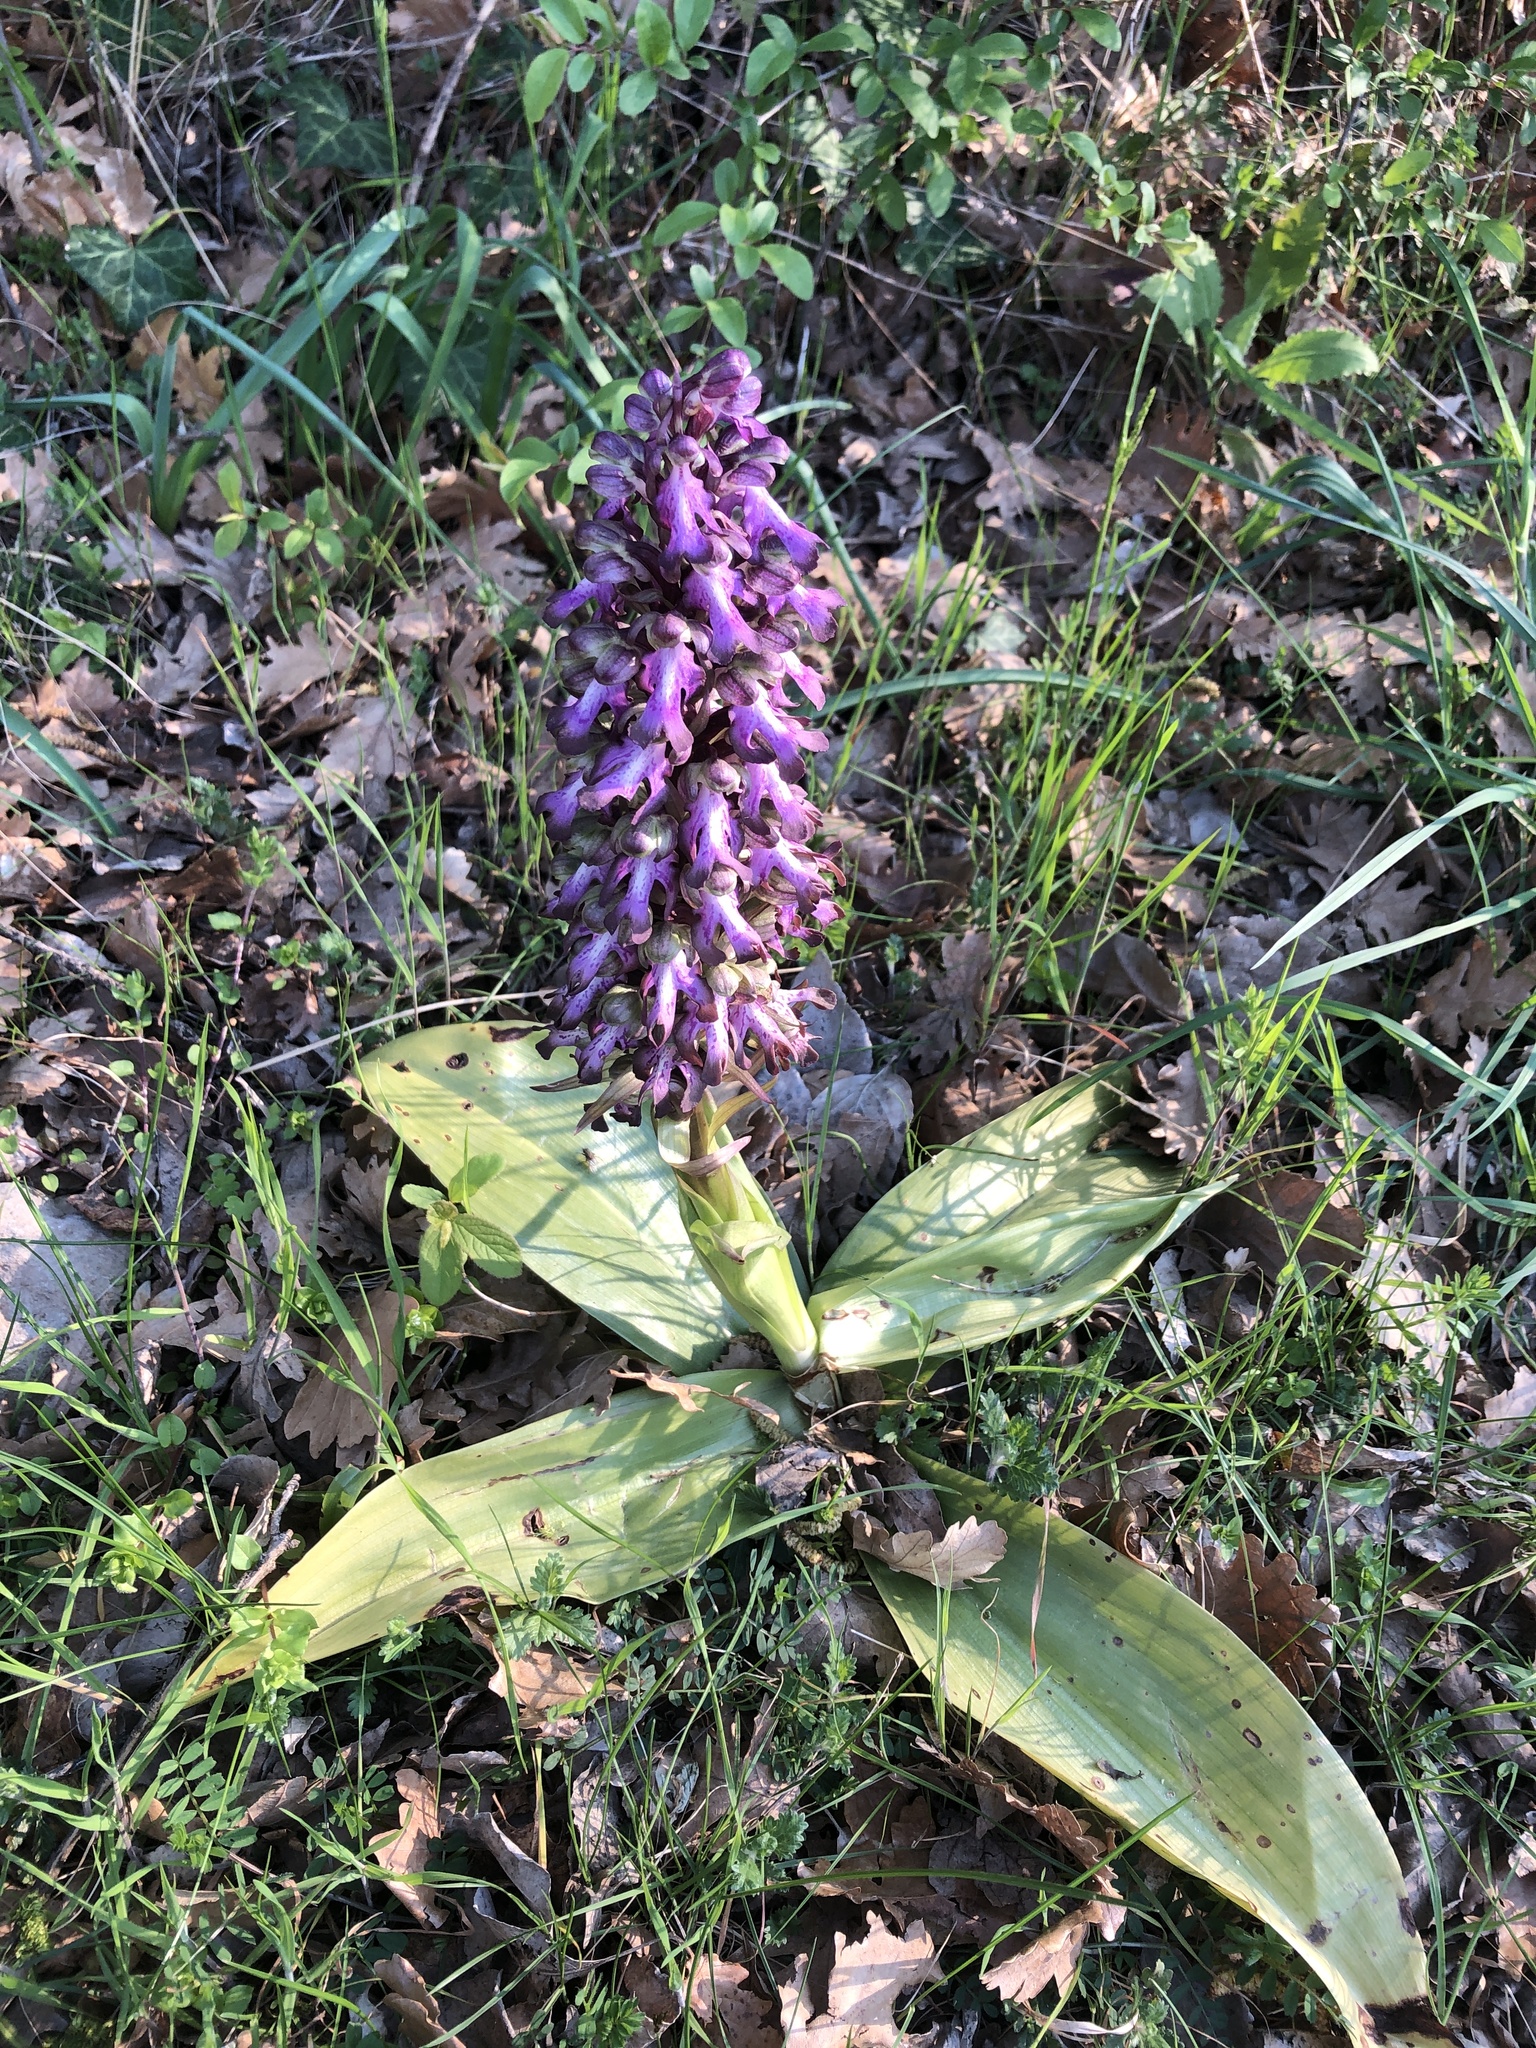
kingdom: Plantae
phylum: Tracheophyta
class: Liliopsida
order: Asparagales
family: Orchidaceae
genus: Himantoglossum
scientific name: Himantoglossum robertianum
